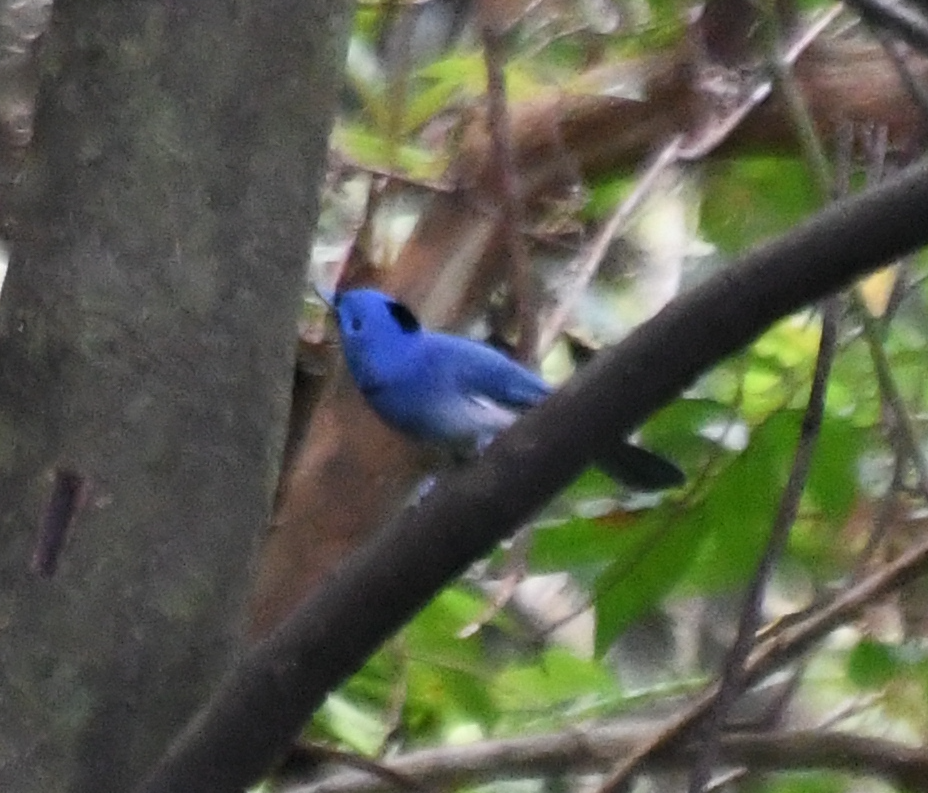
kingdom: Animalia
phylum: Chordata
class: Aves
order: Passeriformes
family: Monarchidae
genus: Hypothymis
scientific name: Hypothymis azurea
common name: Black-naped monarch
